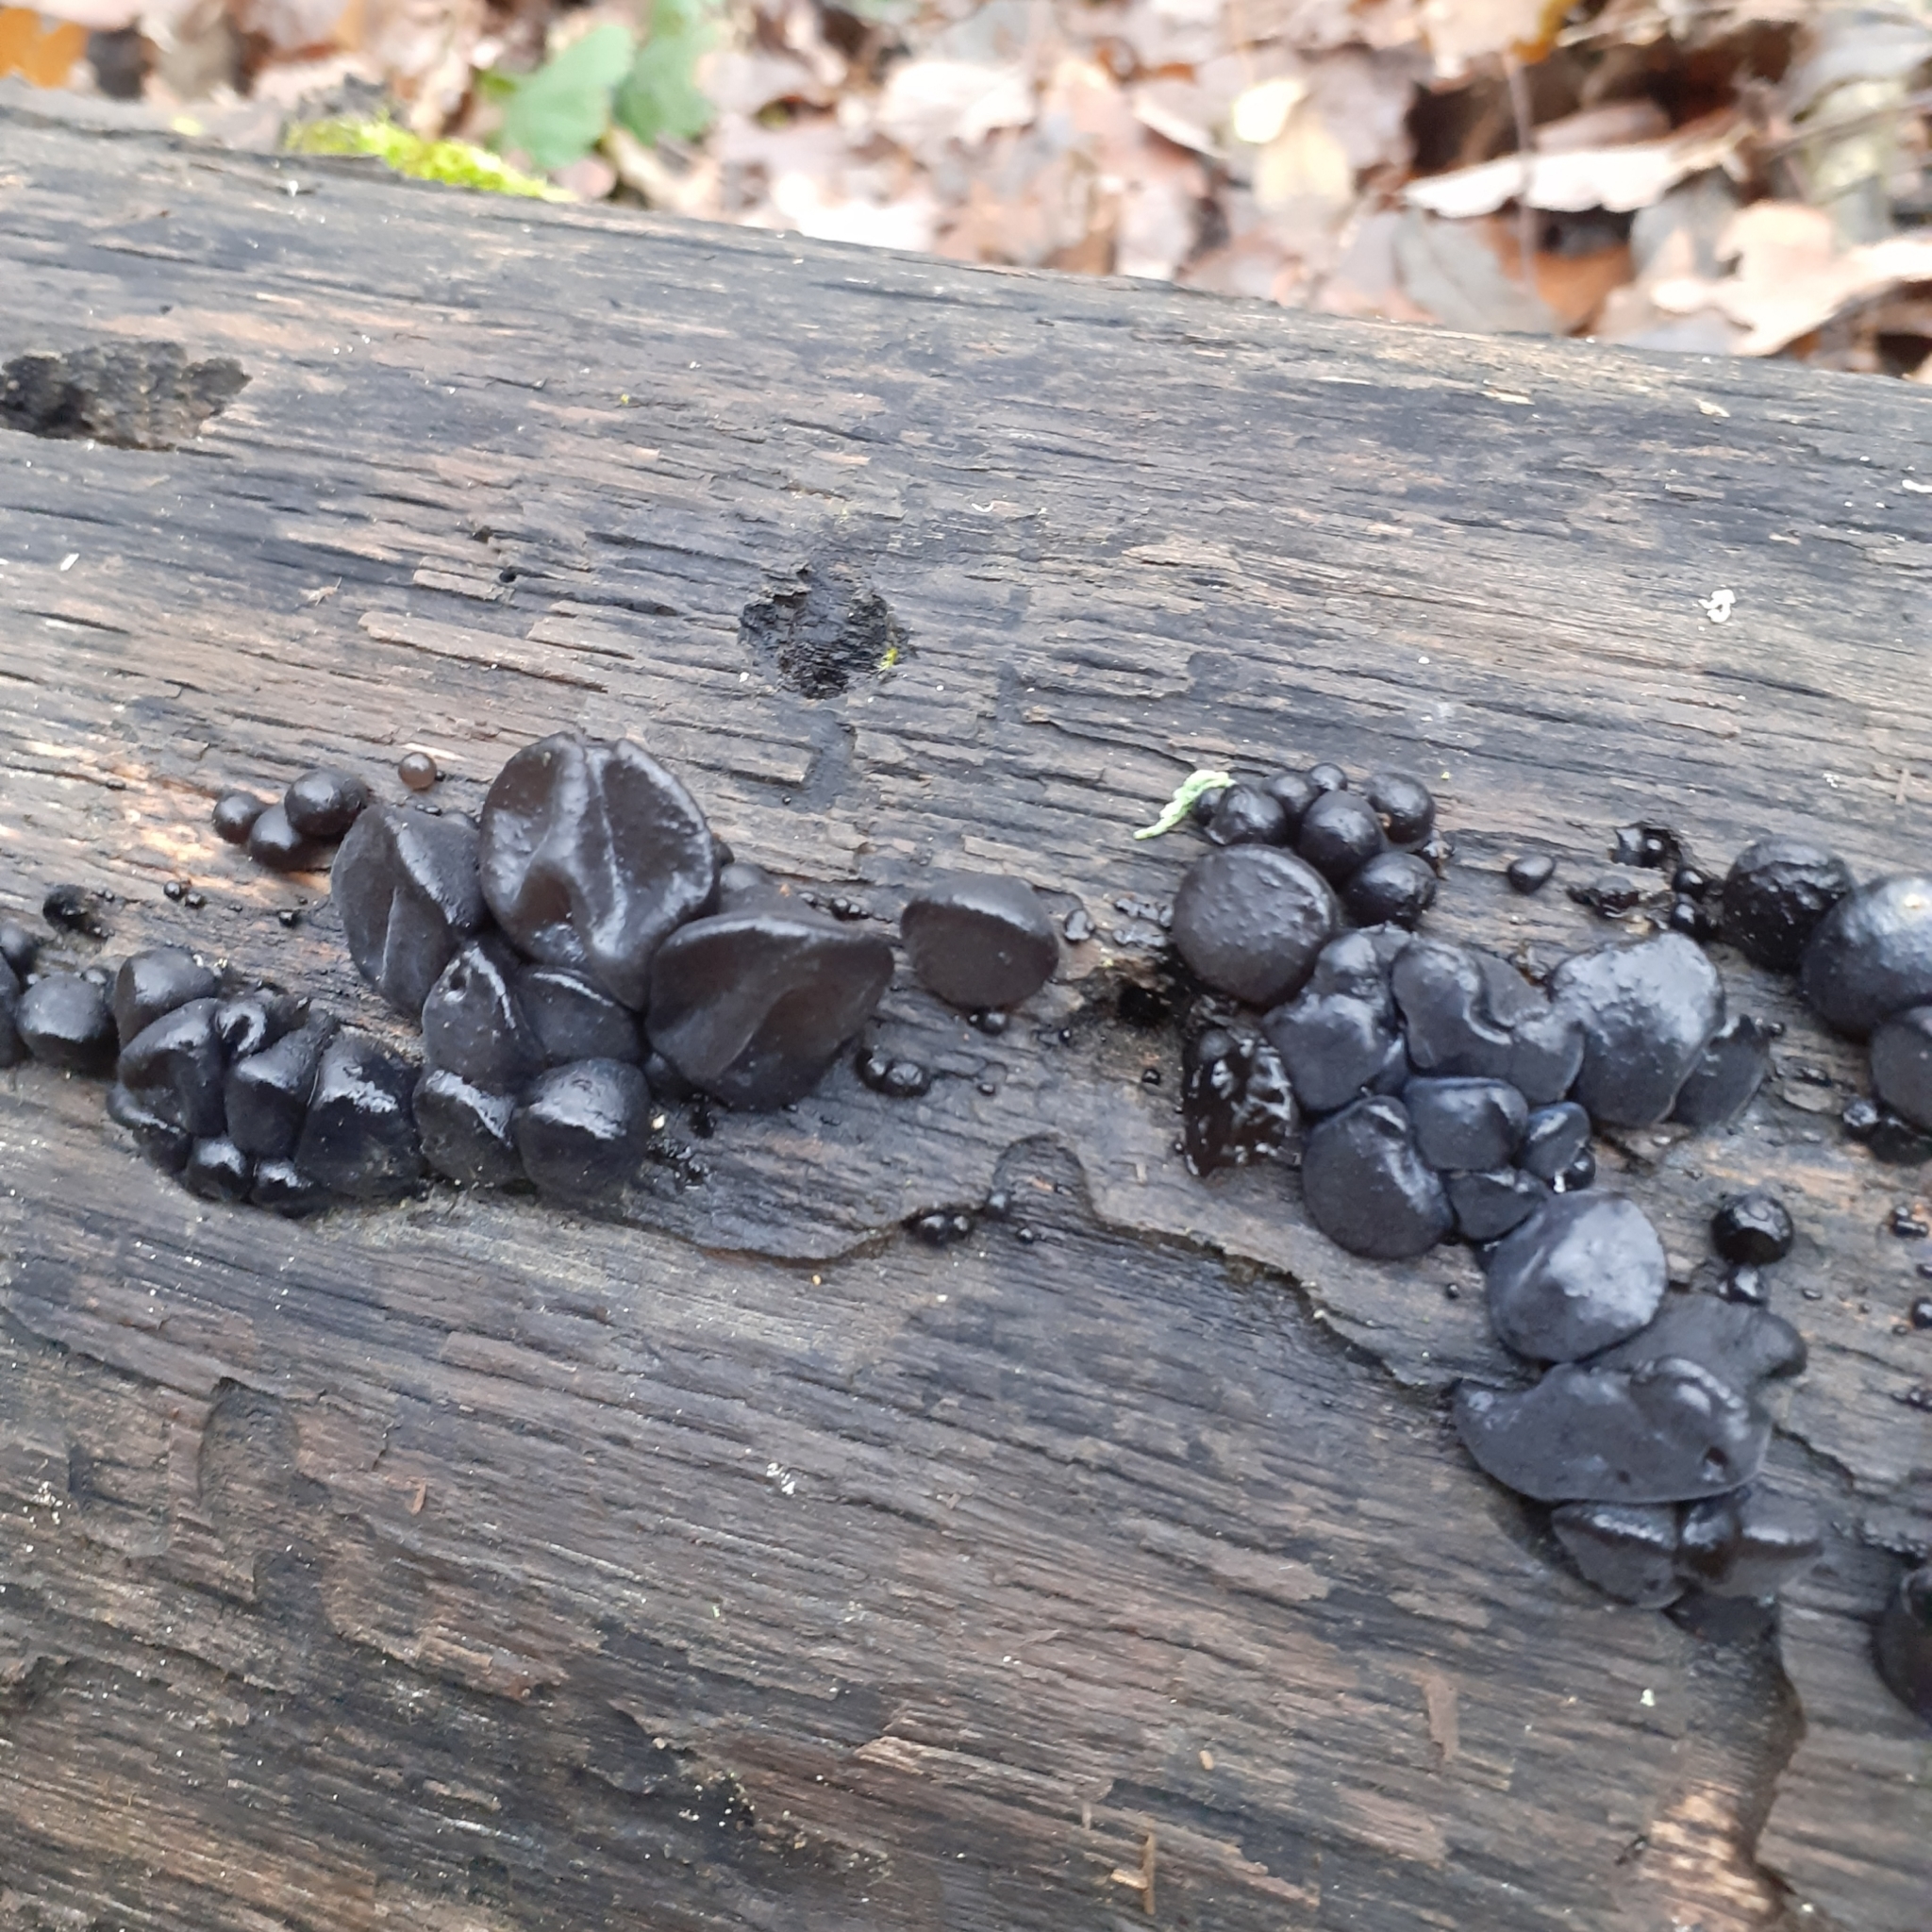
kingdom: Fungi
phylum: Basidiomycota
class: Agaricomycetes
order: Auriculariales
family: Auriculariaceae
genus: Exidia
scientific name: Exidia glandulosa
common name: Witches' butter
